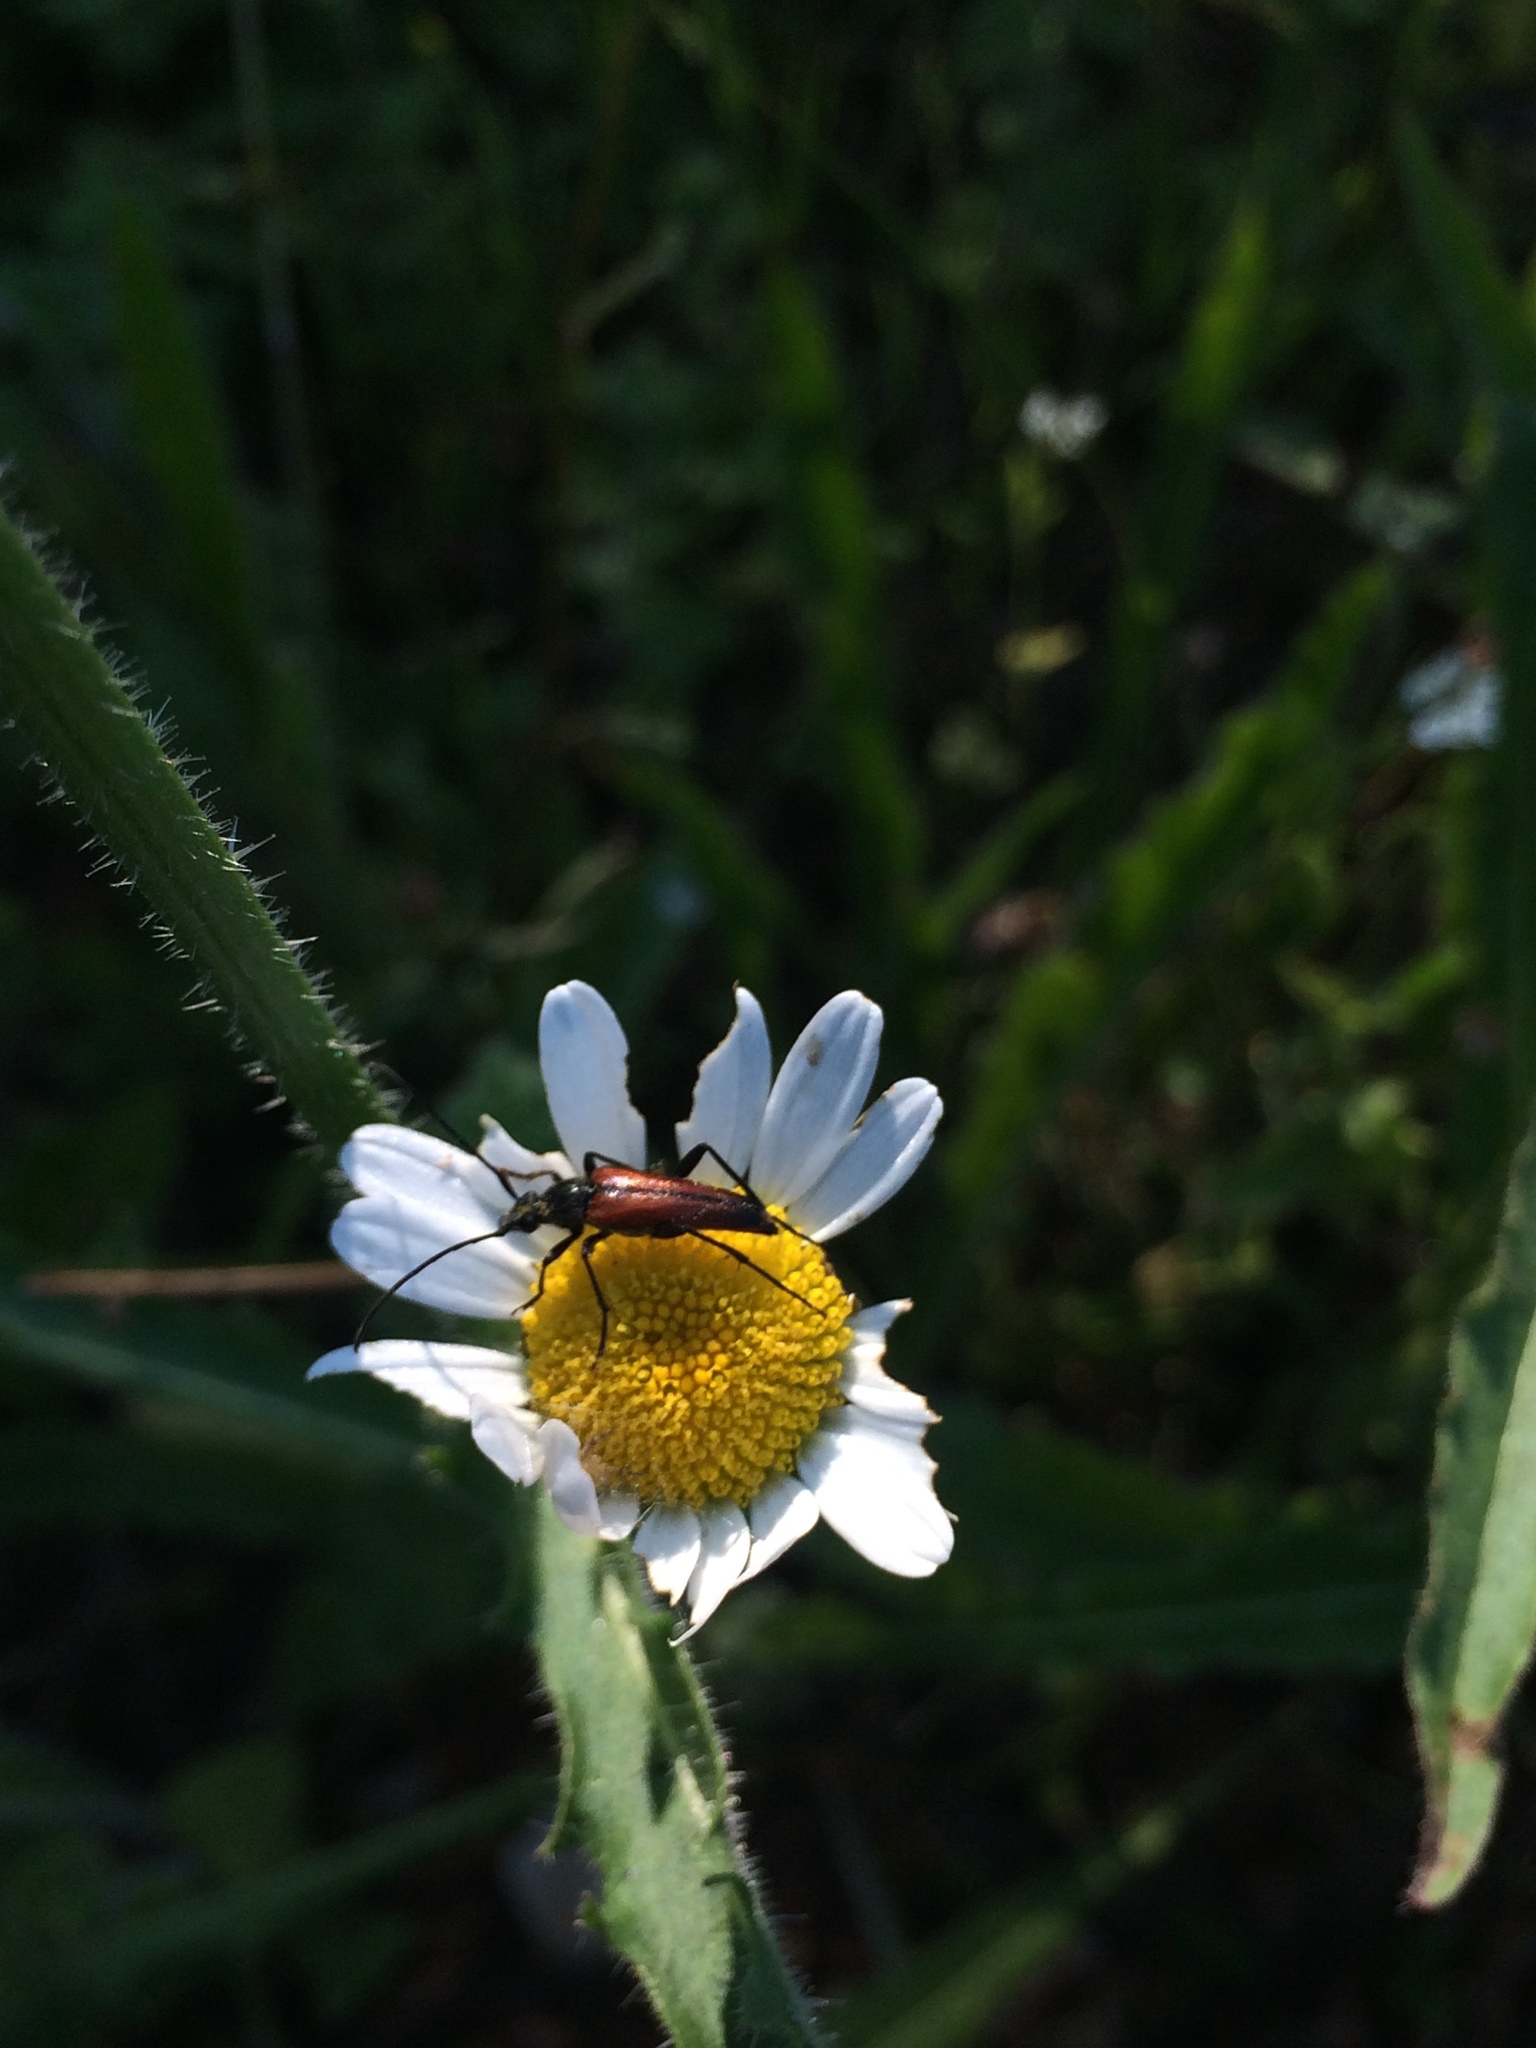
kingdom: Animalia
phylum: Arthropoda
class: Insecta
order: Coleoptera
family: Cerambycidae
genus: Stenurella
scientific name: Stenurella bifasciata
